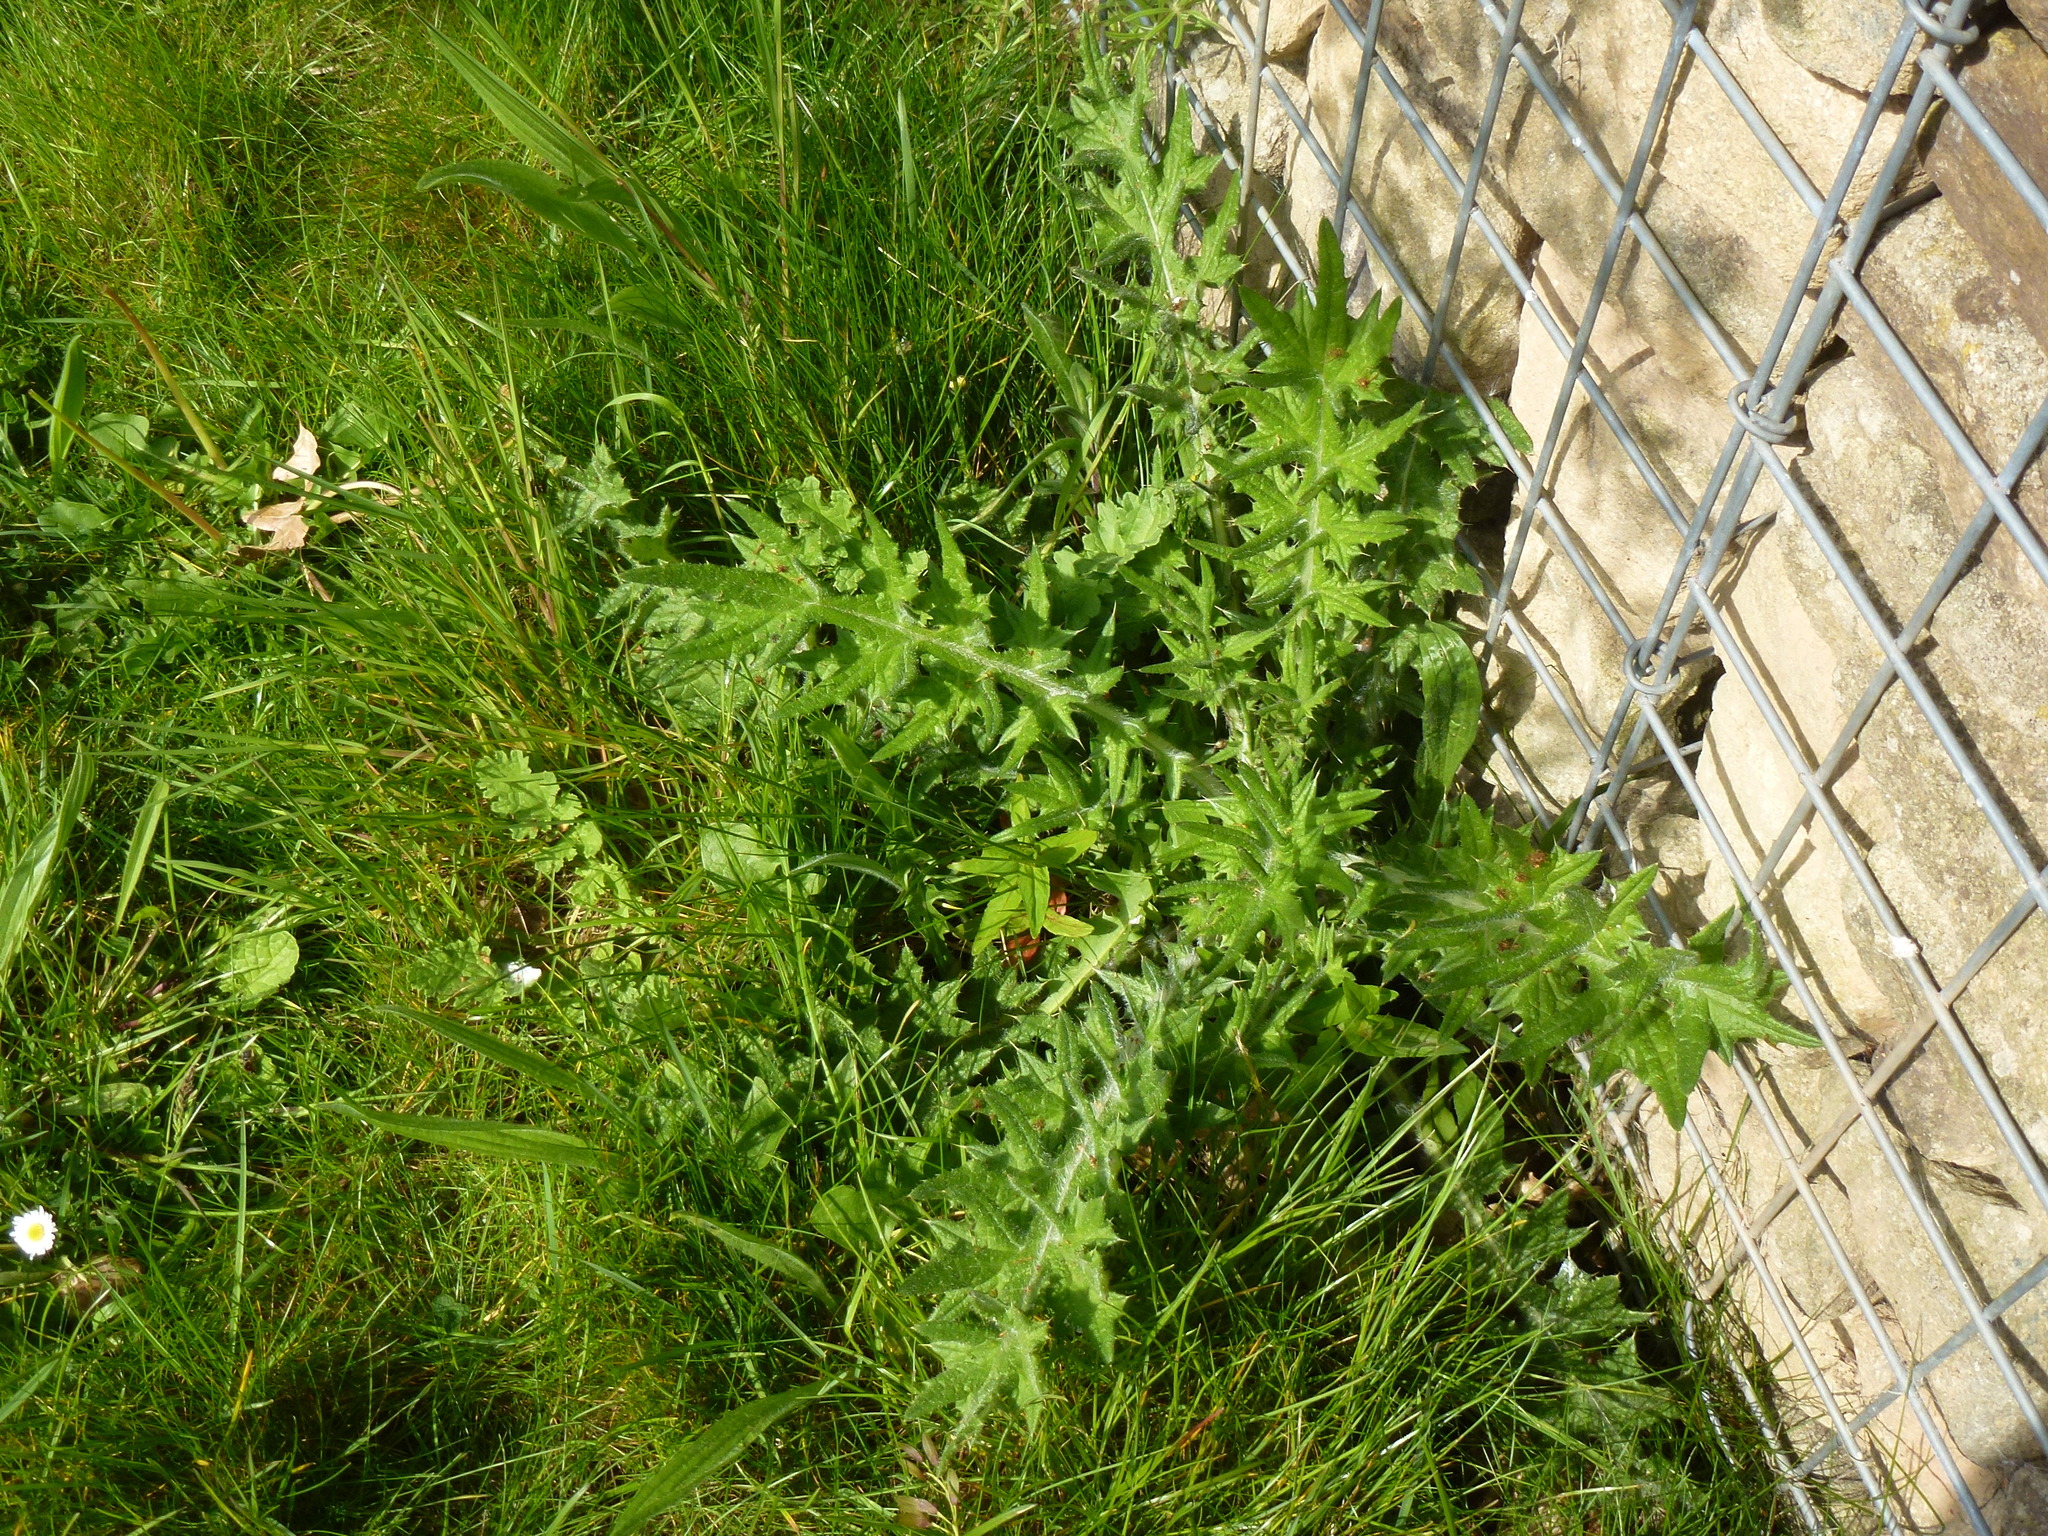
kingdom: Plantae
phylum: Tracheophyta
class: Magnoliopsida
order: Asterales
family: Asteraceae
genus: Cirsium
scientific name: Cirsium vulgare
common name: Bull thistle
